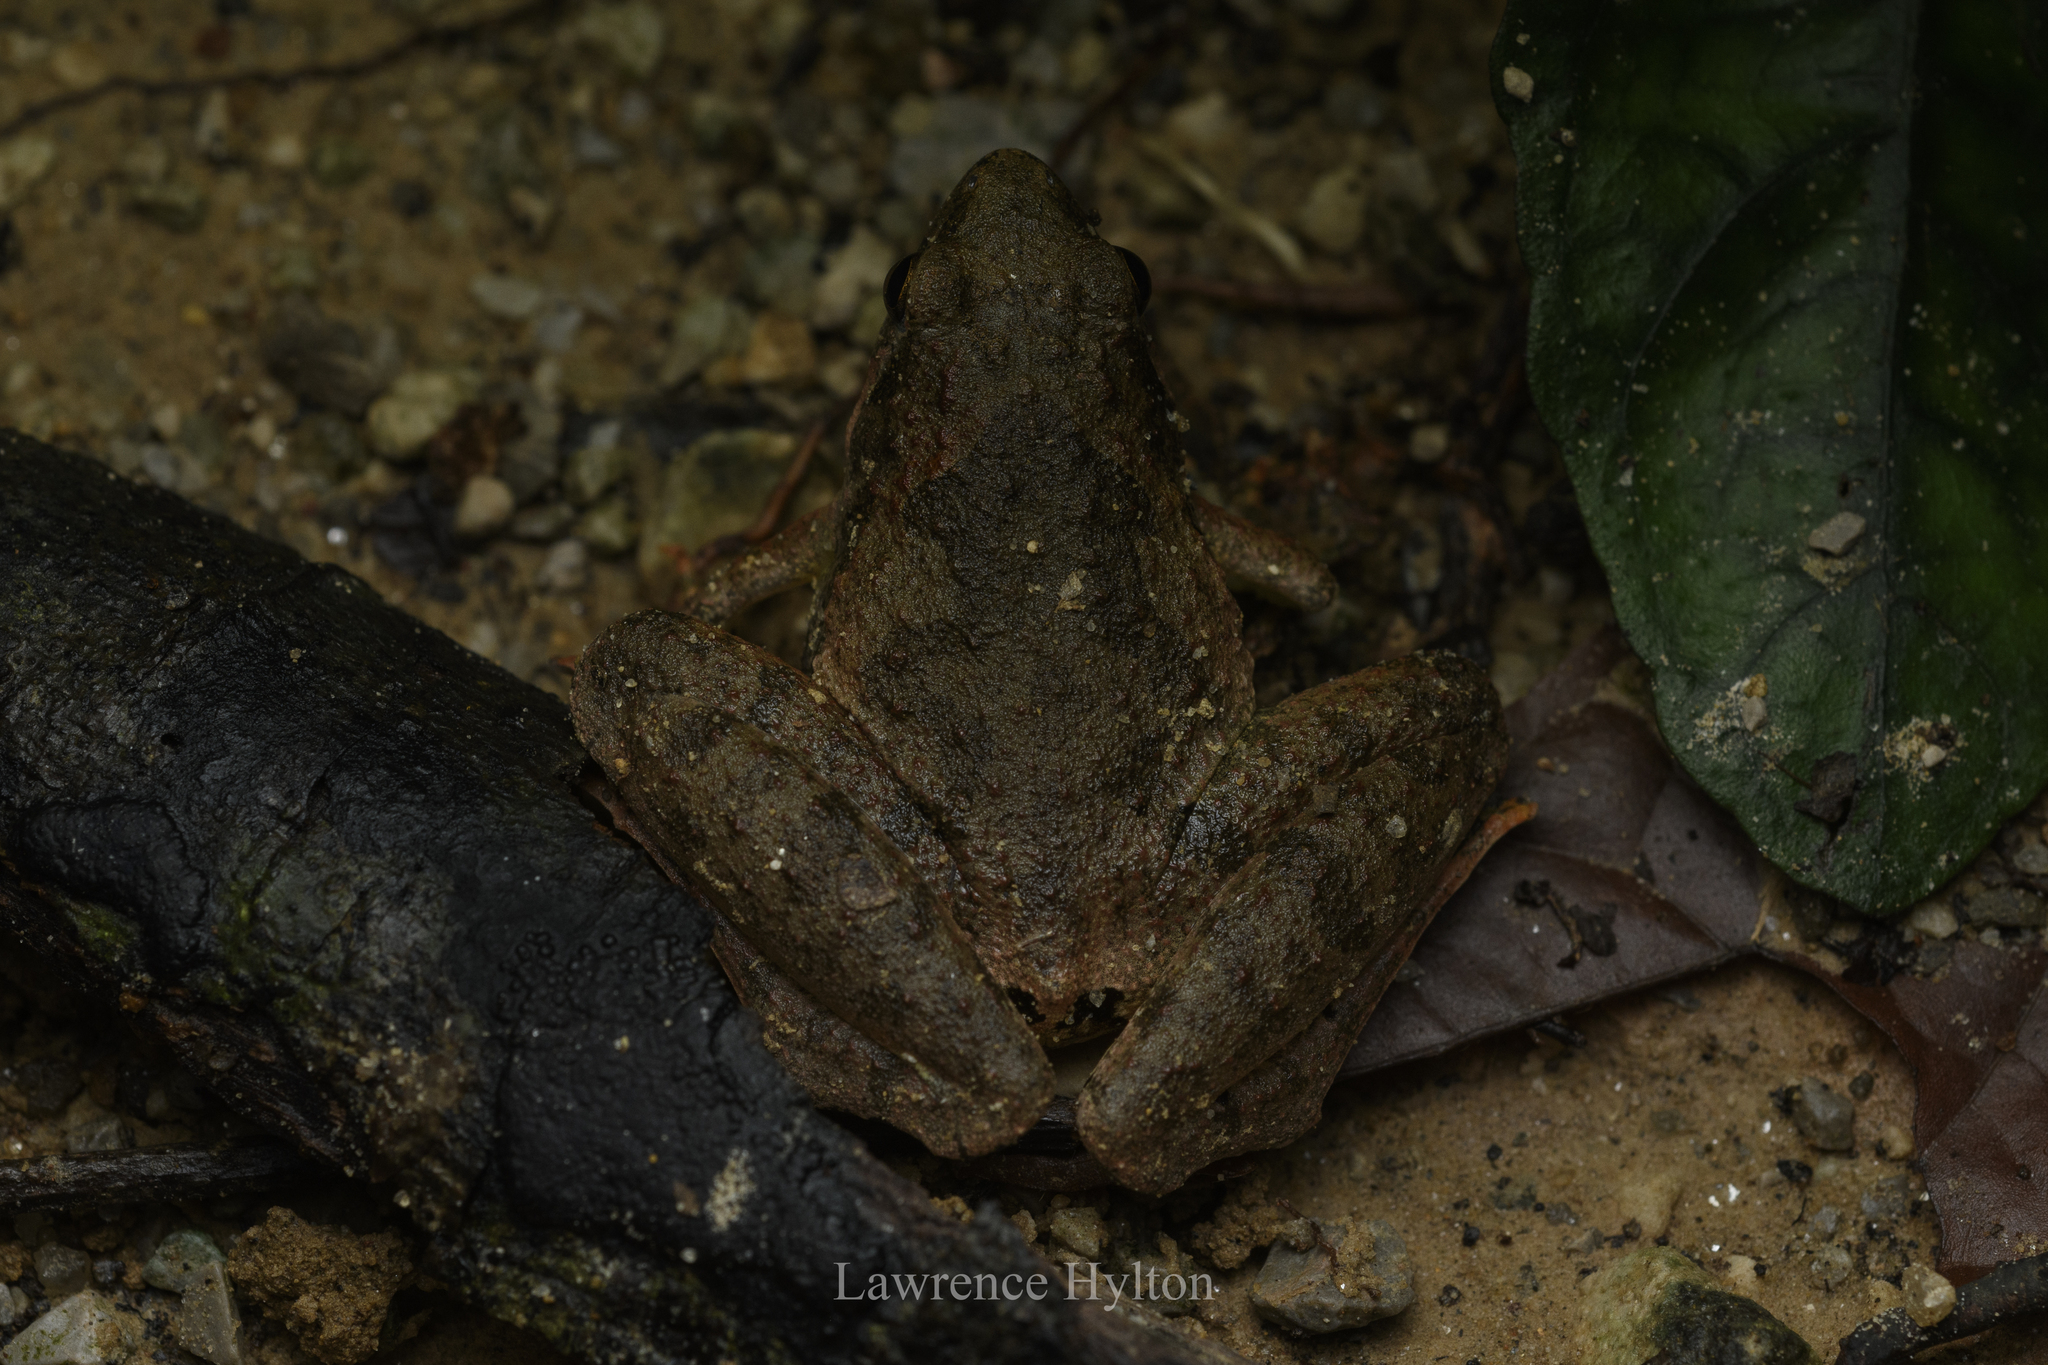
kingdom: Animalia
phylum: Chordata
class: Amphibia
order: Anura
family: Microhylidae
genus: Microhyla
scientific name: Microhyla berdmorei
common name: Berdmore’s narrow-mouthed frog,large pygmy frog
